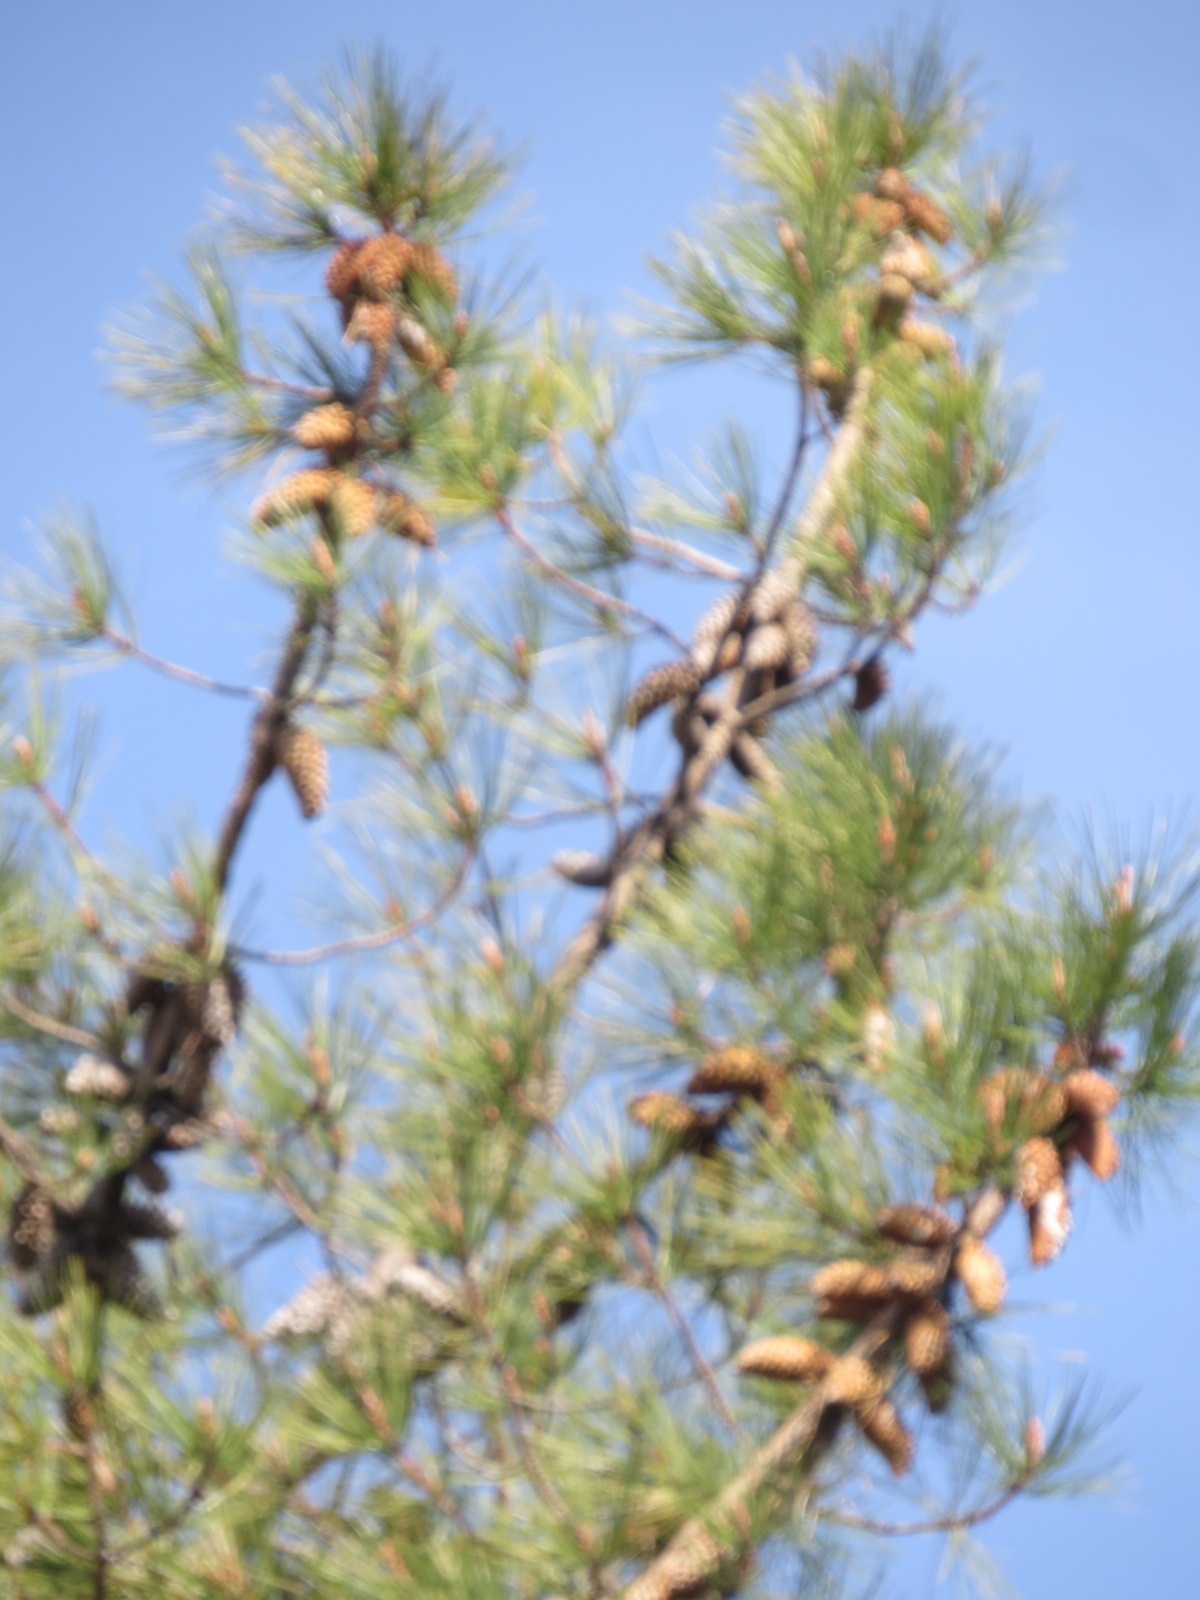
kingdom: Plantae
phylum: Tracheophyta
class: Pinopsida
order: Pinales
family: Pinaceae
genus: Pinus
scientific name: Pinus attenuata
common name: Knobcone pine
